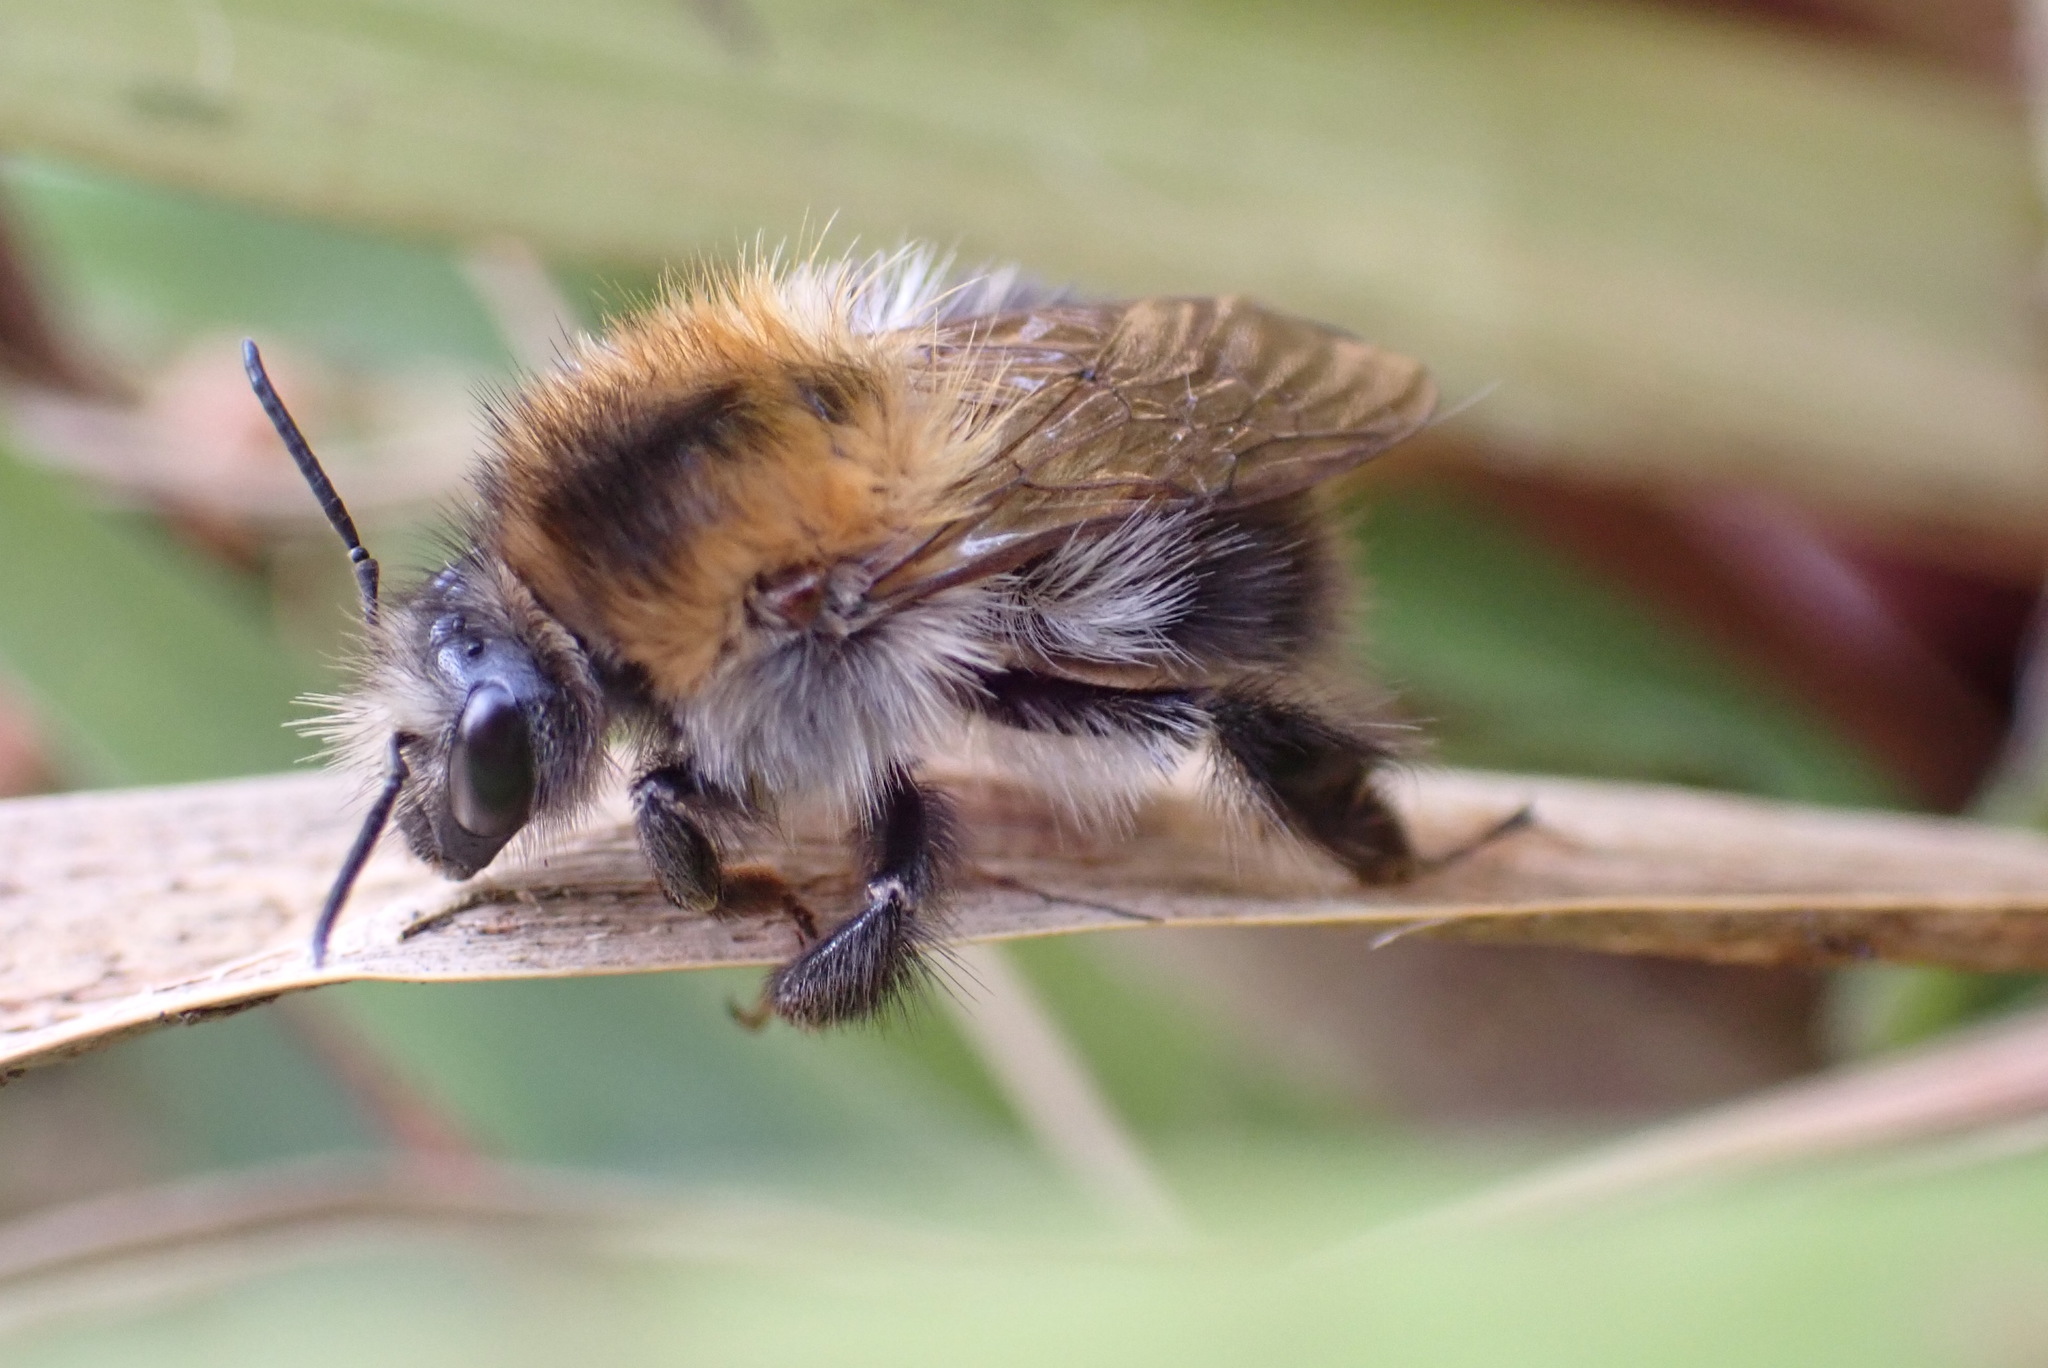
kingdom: Animalia
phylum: Arthropoda
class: Insecta
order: Hymenoptera
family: Apidae
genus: Bombus
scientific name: Bombus pascuorum
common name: Common carder bee
